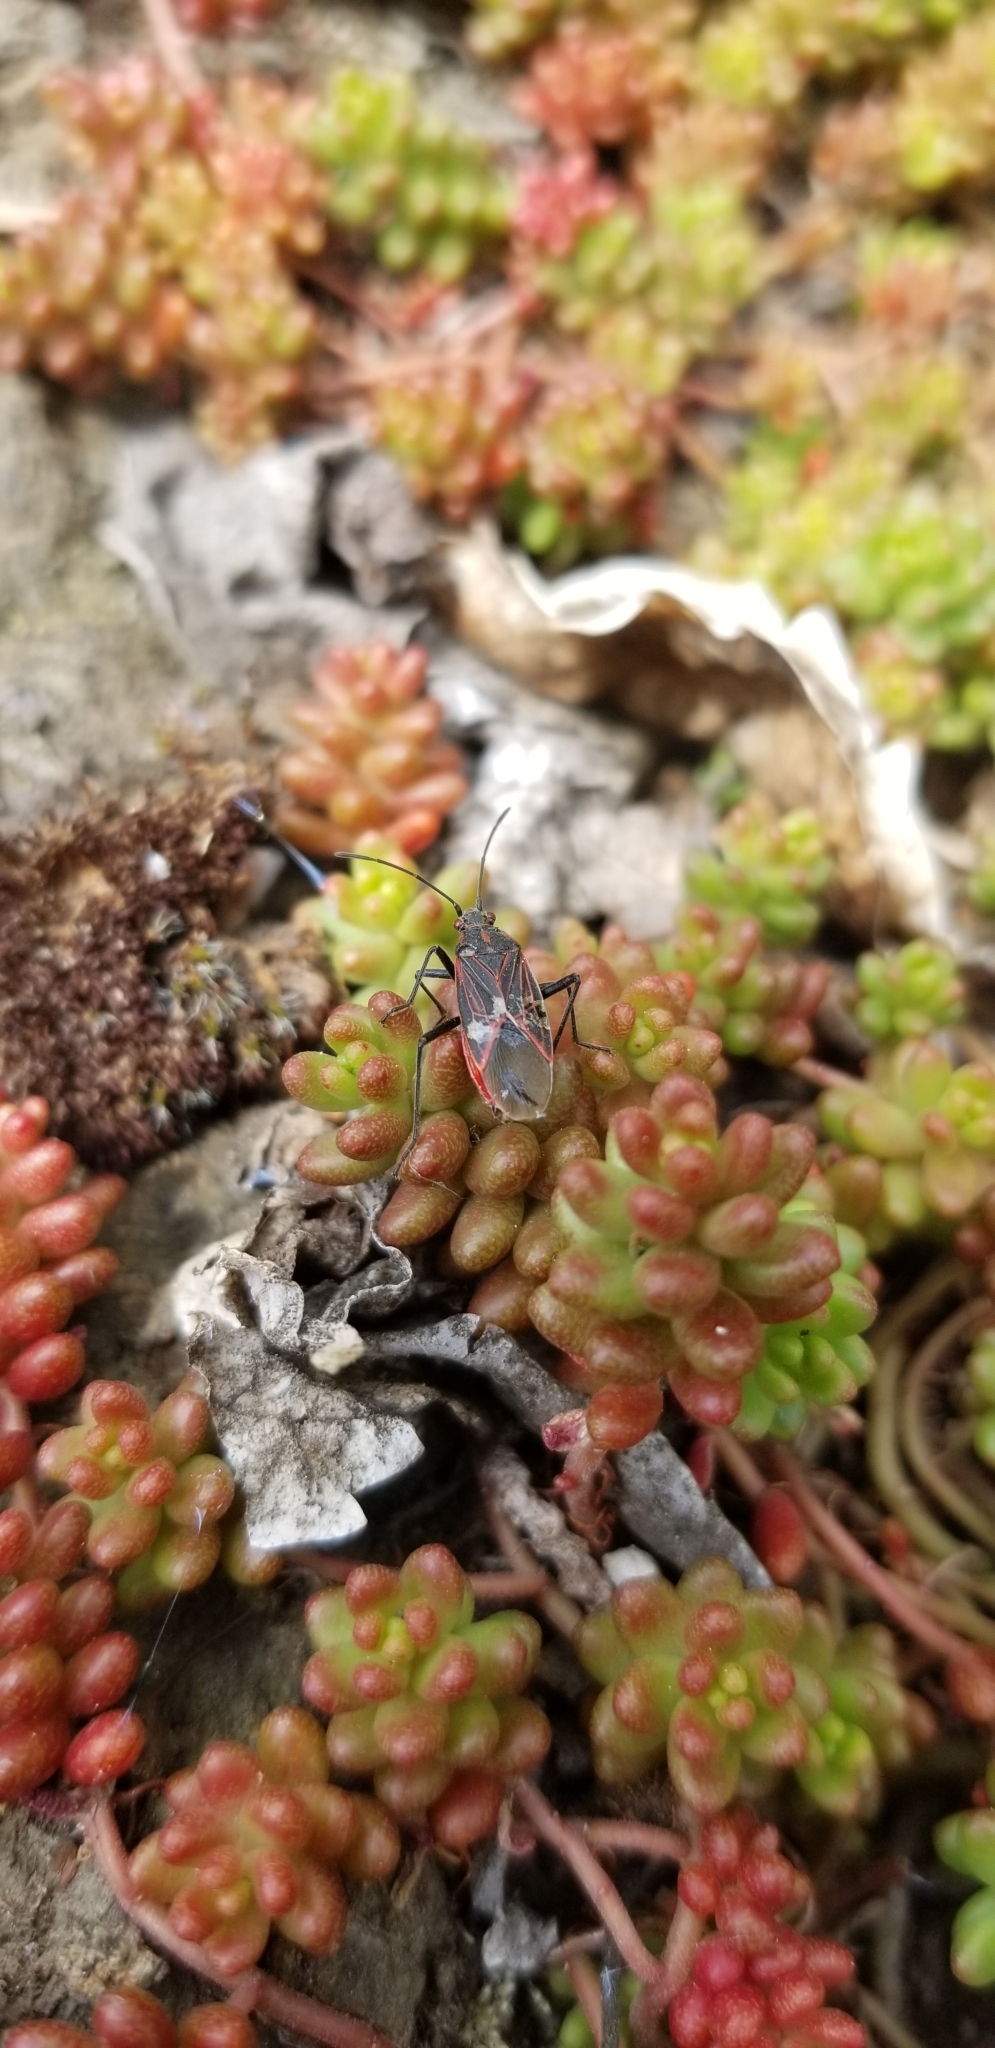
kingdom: Animalia
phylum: Arthropoda
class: Insecta
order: Hemiptera
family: Rhopalidae
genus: Boisea
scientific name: Boisea rubrolineata
